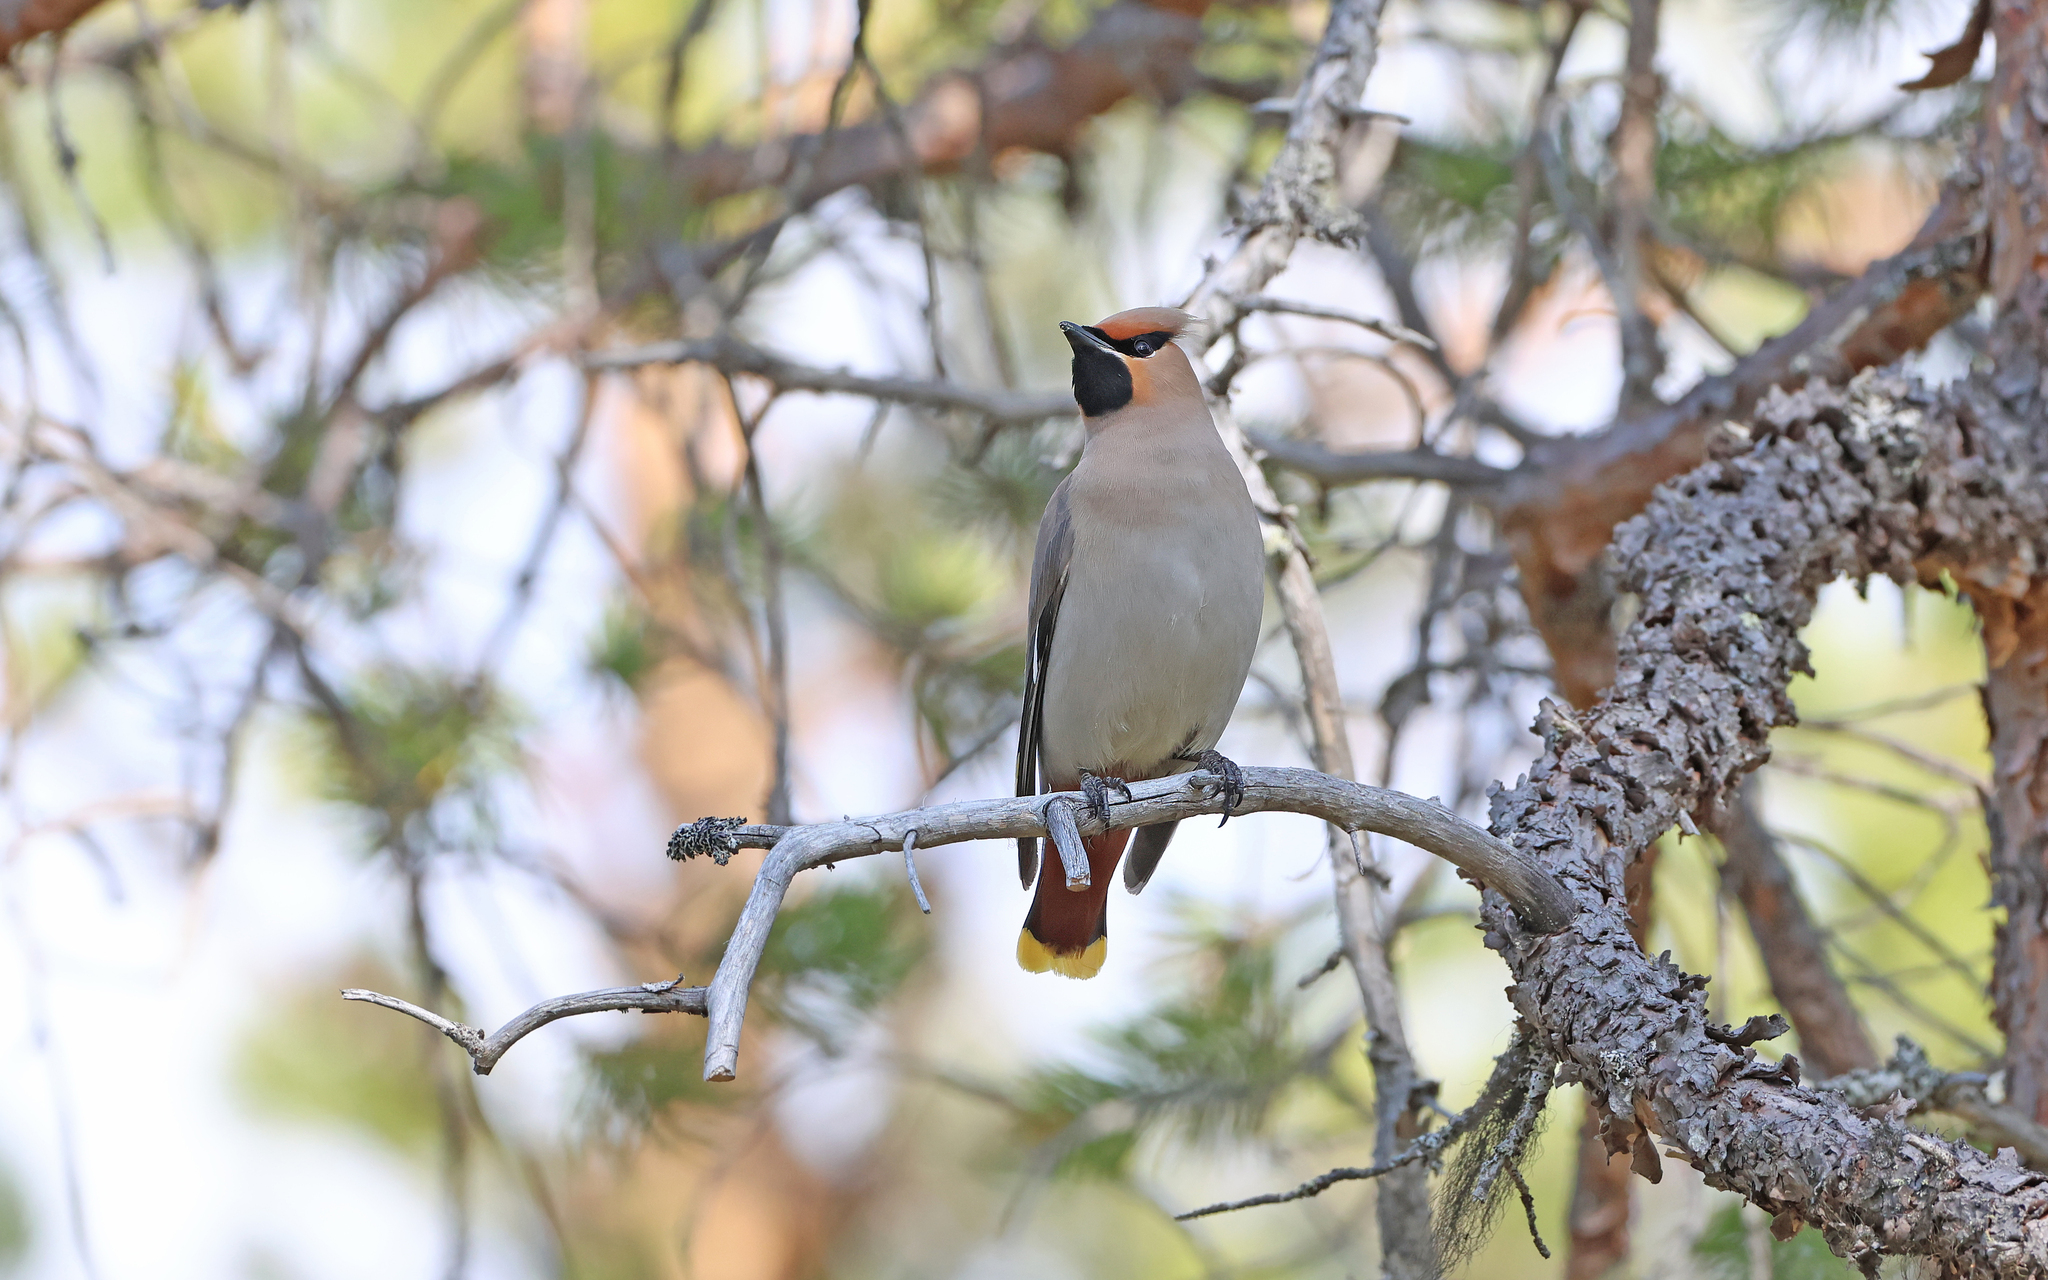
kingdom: Animalia
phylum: Chordata
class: Aves
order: Passeriformes
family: Bombycillidae
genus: Bombycilla
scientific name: Bombycilla garrulus
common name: Bohemian waxwing
